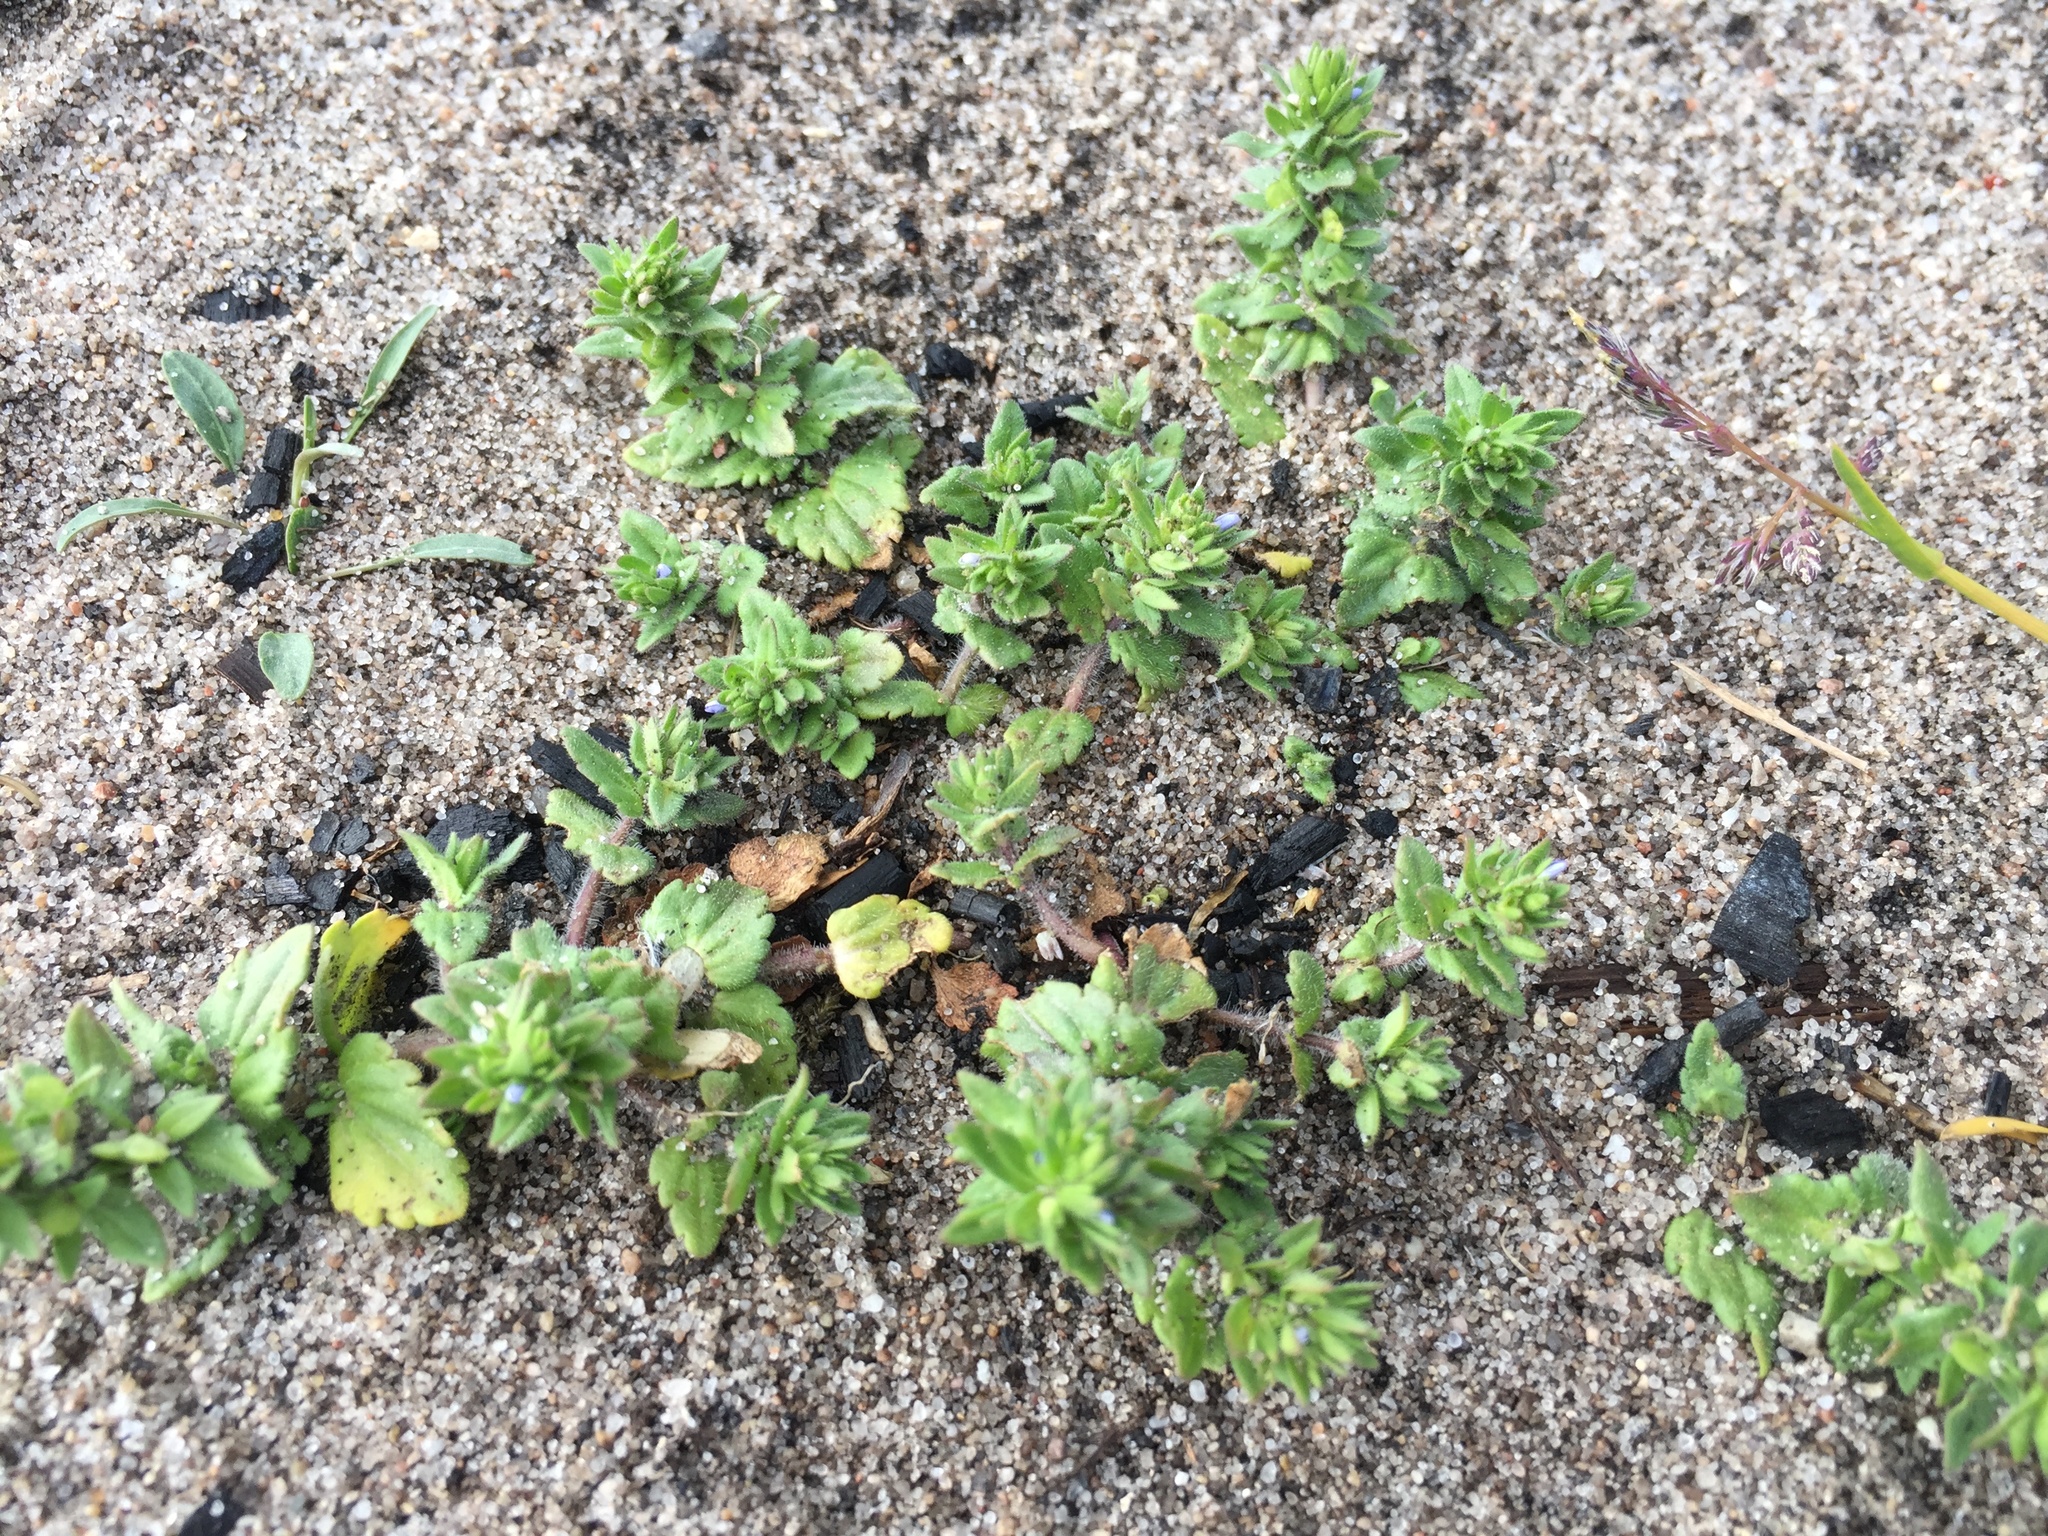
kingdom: Plantae
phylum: Tracheophyta
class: Magnoliopsida
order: Lamiales
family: Plantaginaceae
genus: Veronica
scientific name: Veronica arvensis
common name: Corn speedwell
